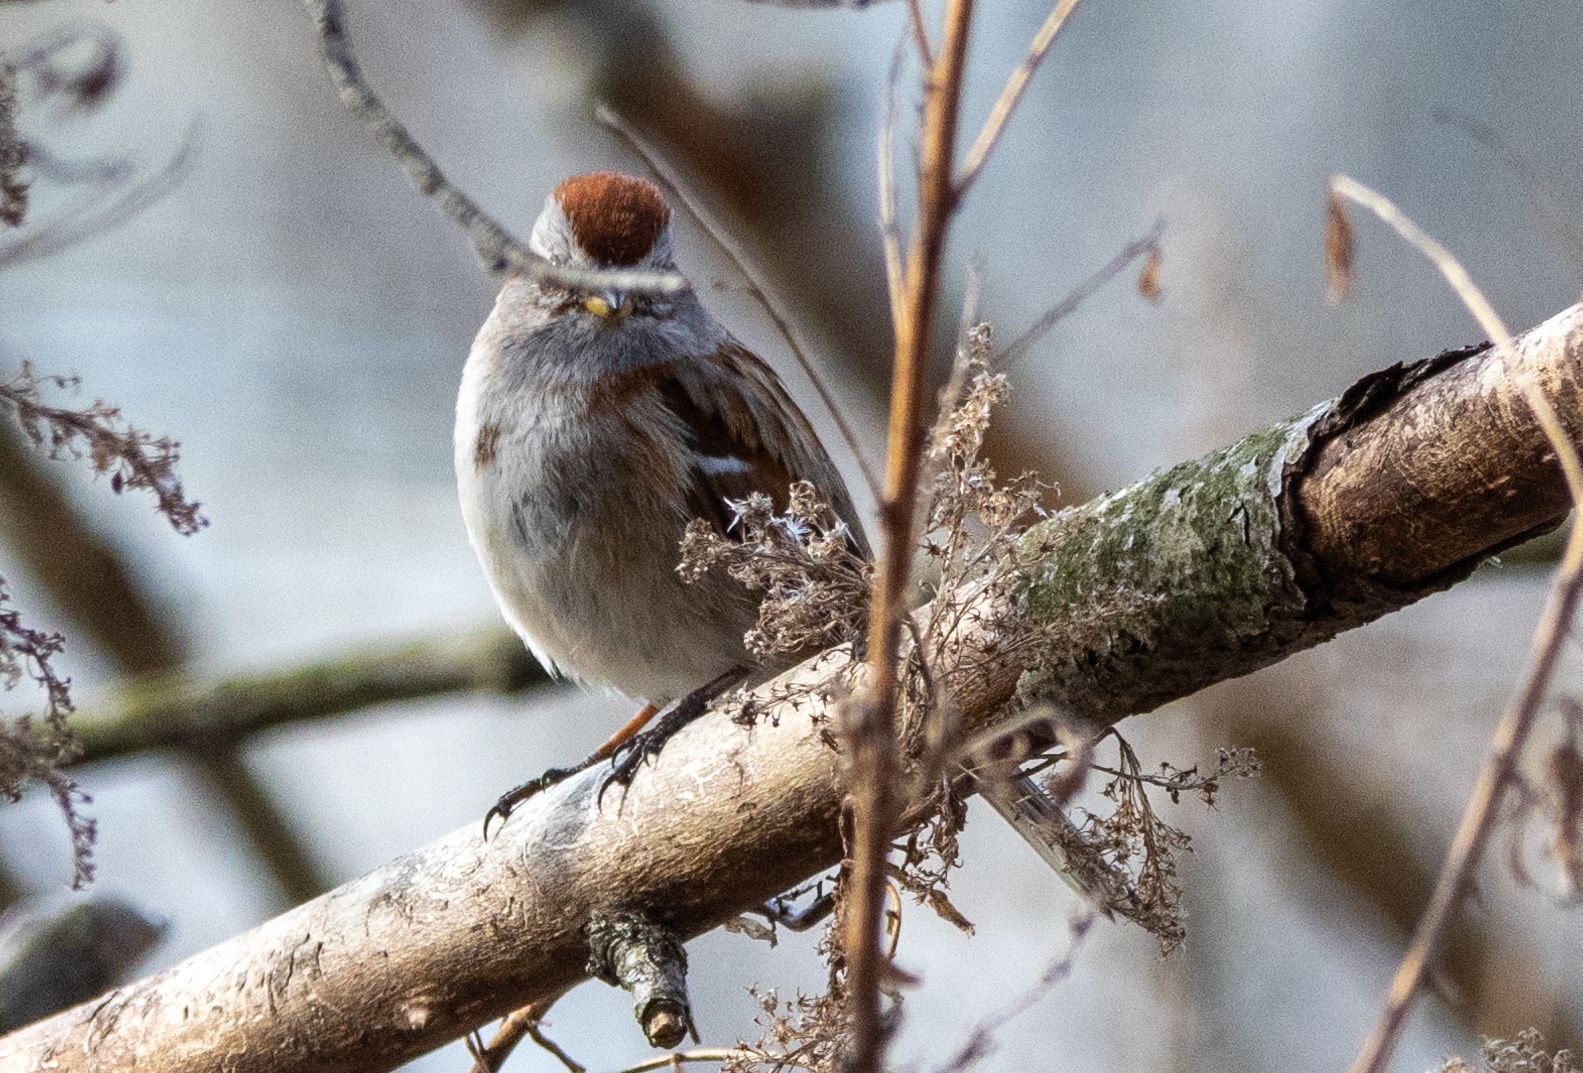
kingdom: Animalia
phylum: Chordata
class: Aves
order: Passeriformes
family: Passerellidae
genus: Spizelloides
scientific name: Spizelloides arborea
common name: American tree sparrow
